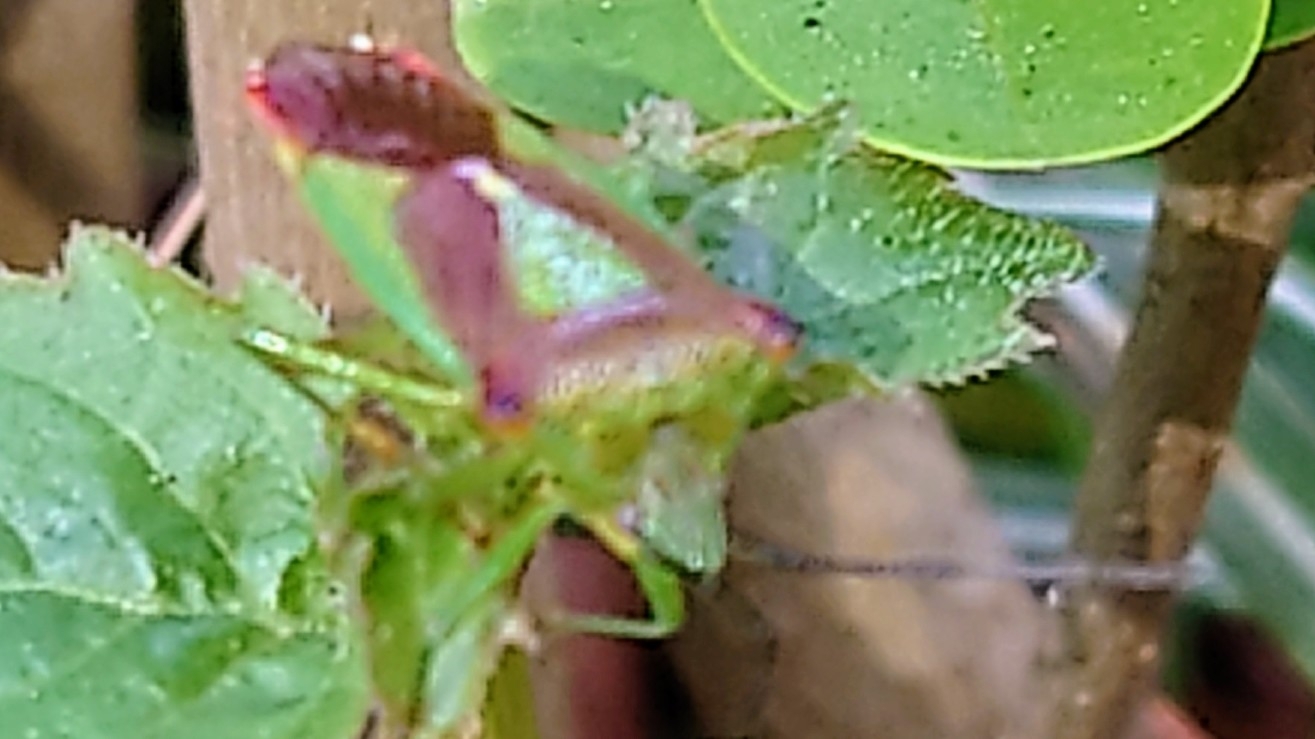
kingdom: Animalia
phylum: Arthropoda
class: Insecta
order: Hemiptera
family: Acanthosomatidae
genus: Acanthosoma
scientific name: Acanthosoma haemorrhoidale
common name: Hawthorn shieldbug
